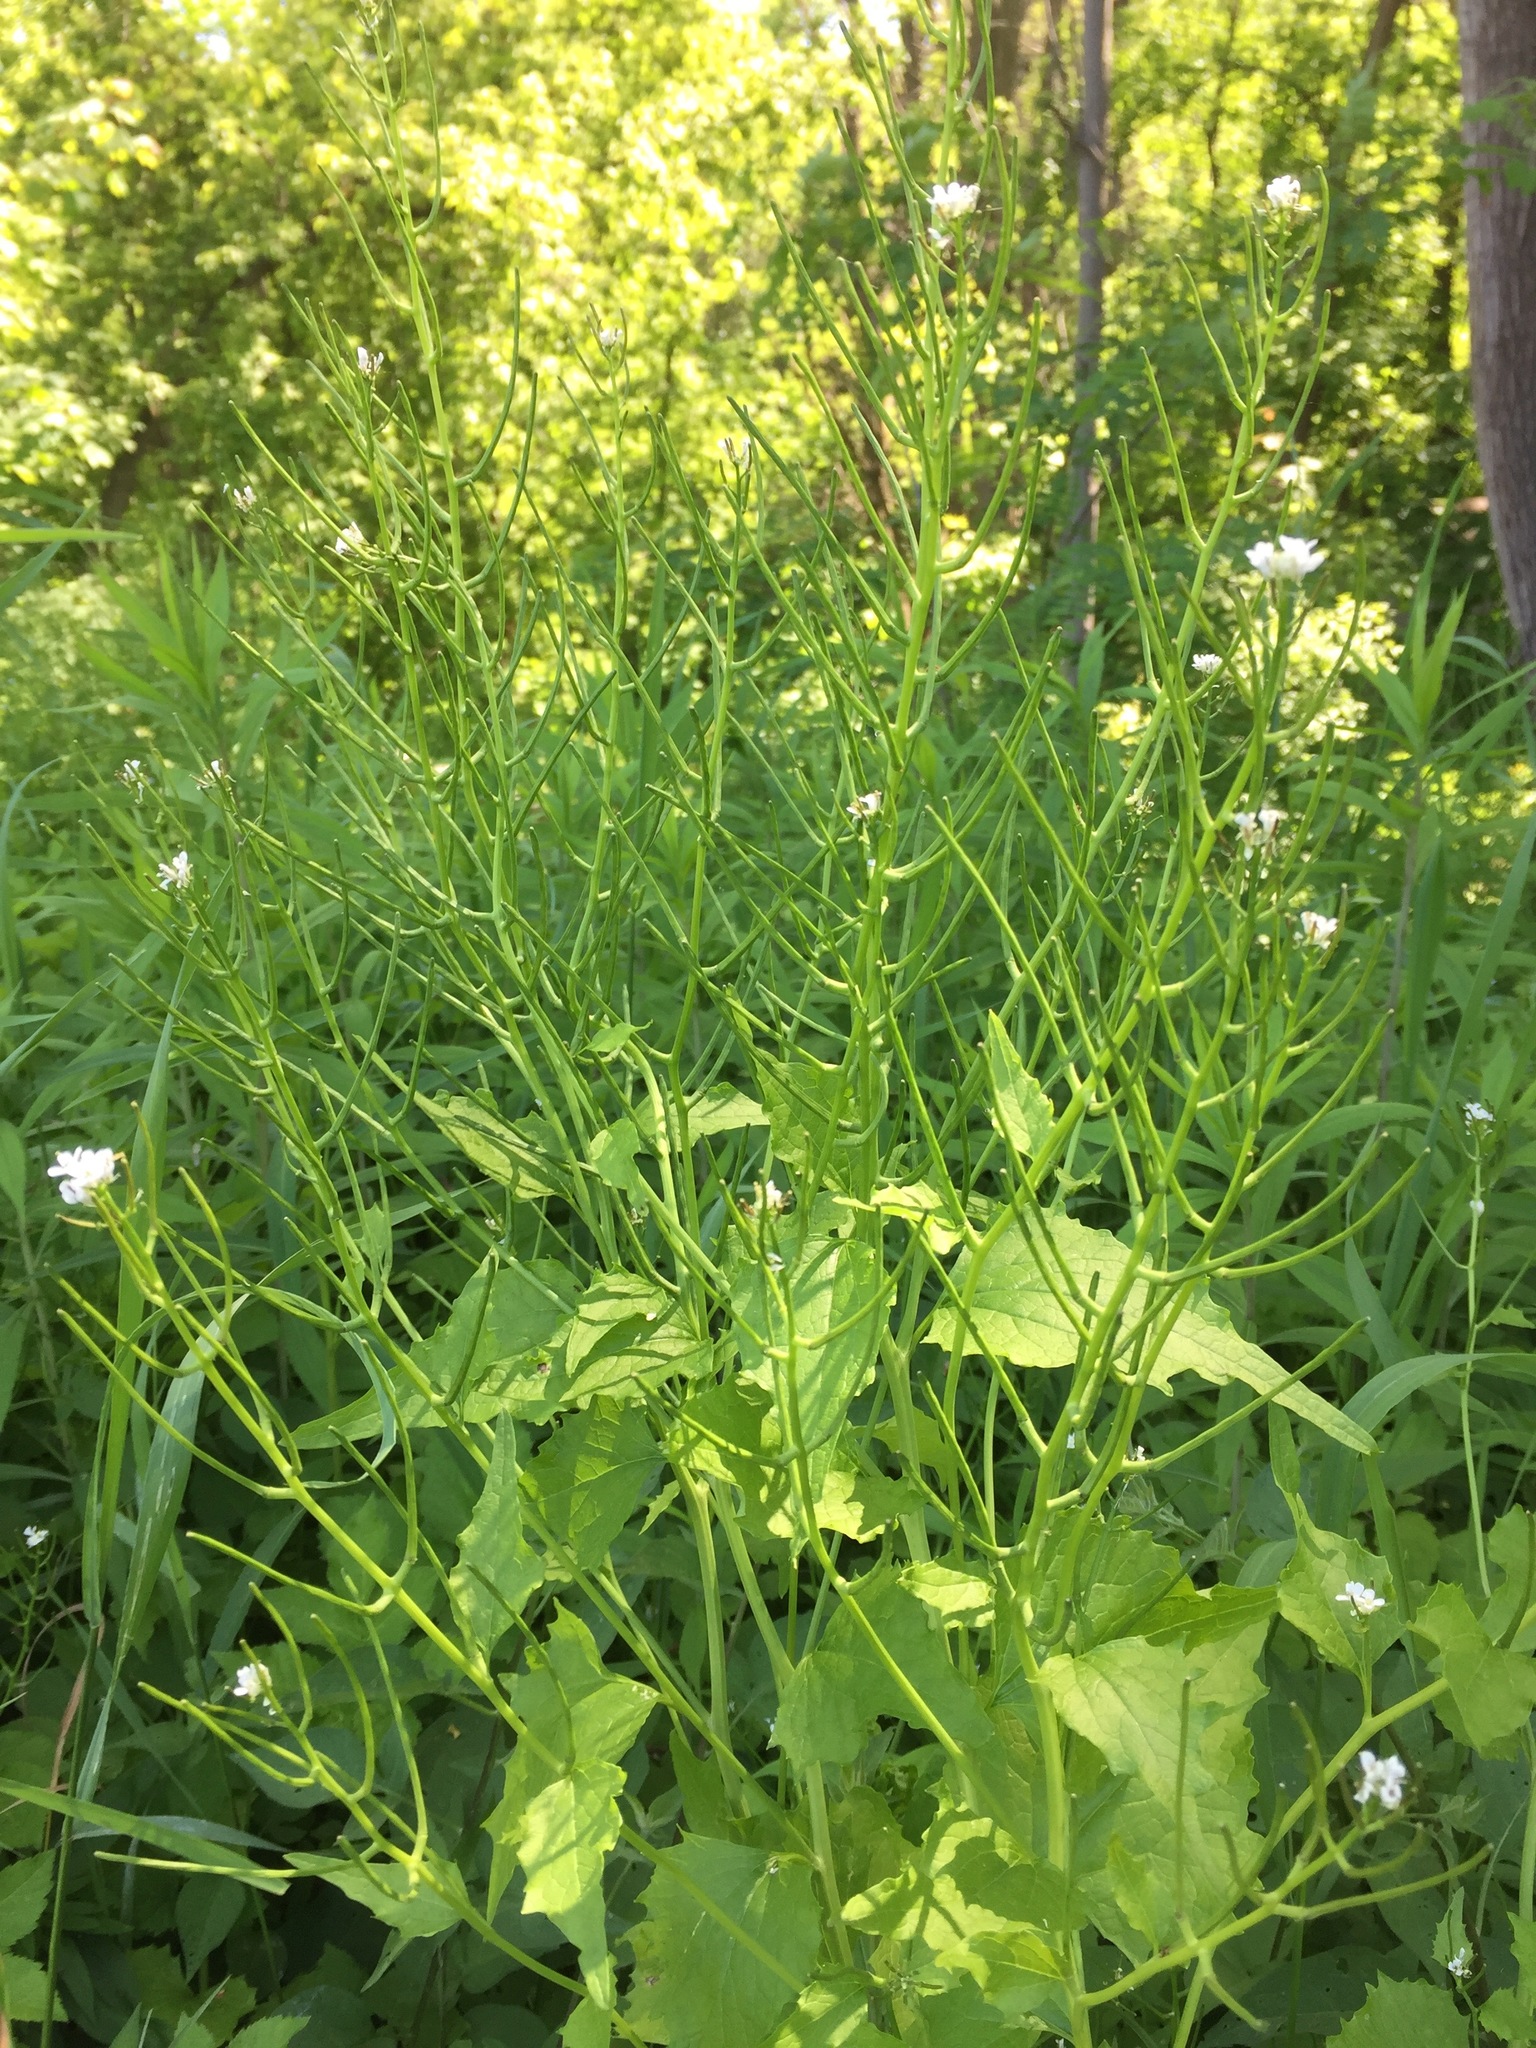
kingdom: Plantae
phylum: Tracheophyta
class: Magnoliopsida
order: Brassicales
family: Brassicaceae
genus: Alliaria
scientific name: Alliaria petiolata
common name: Garlic mustard
